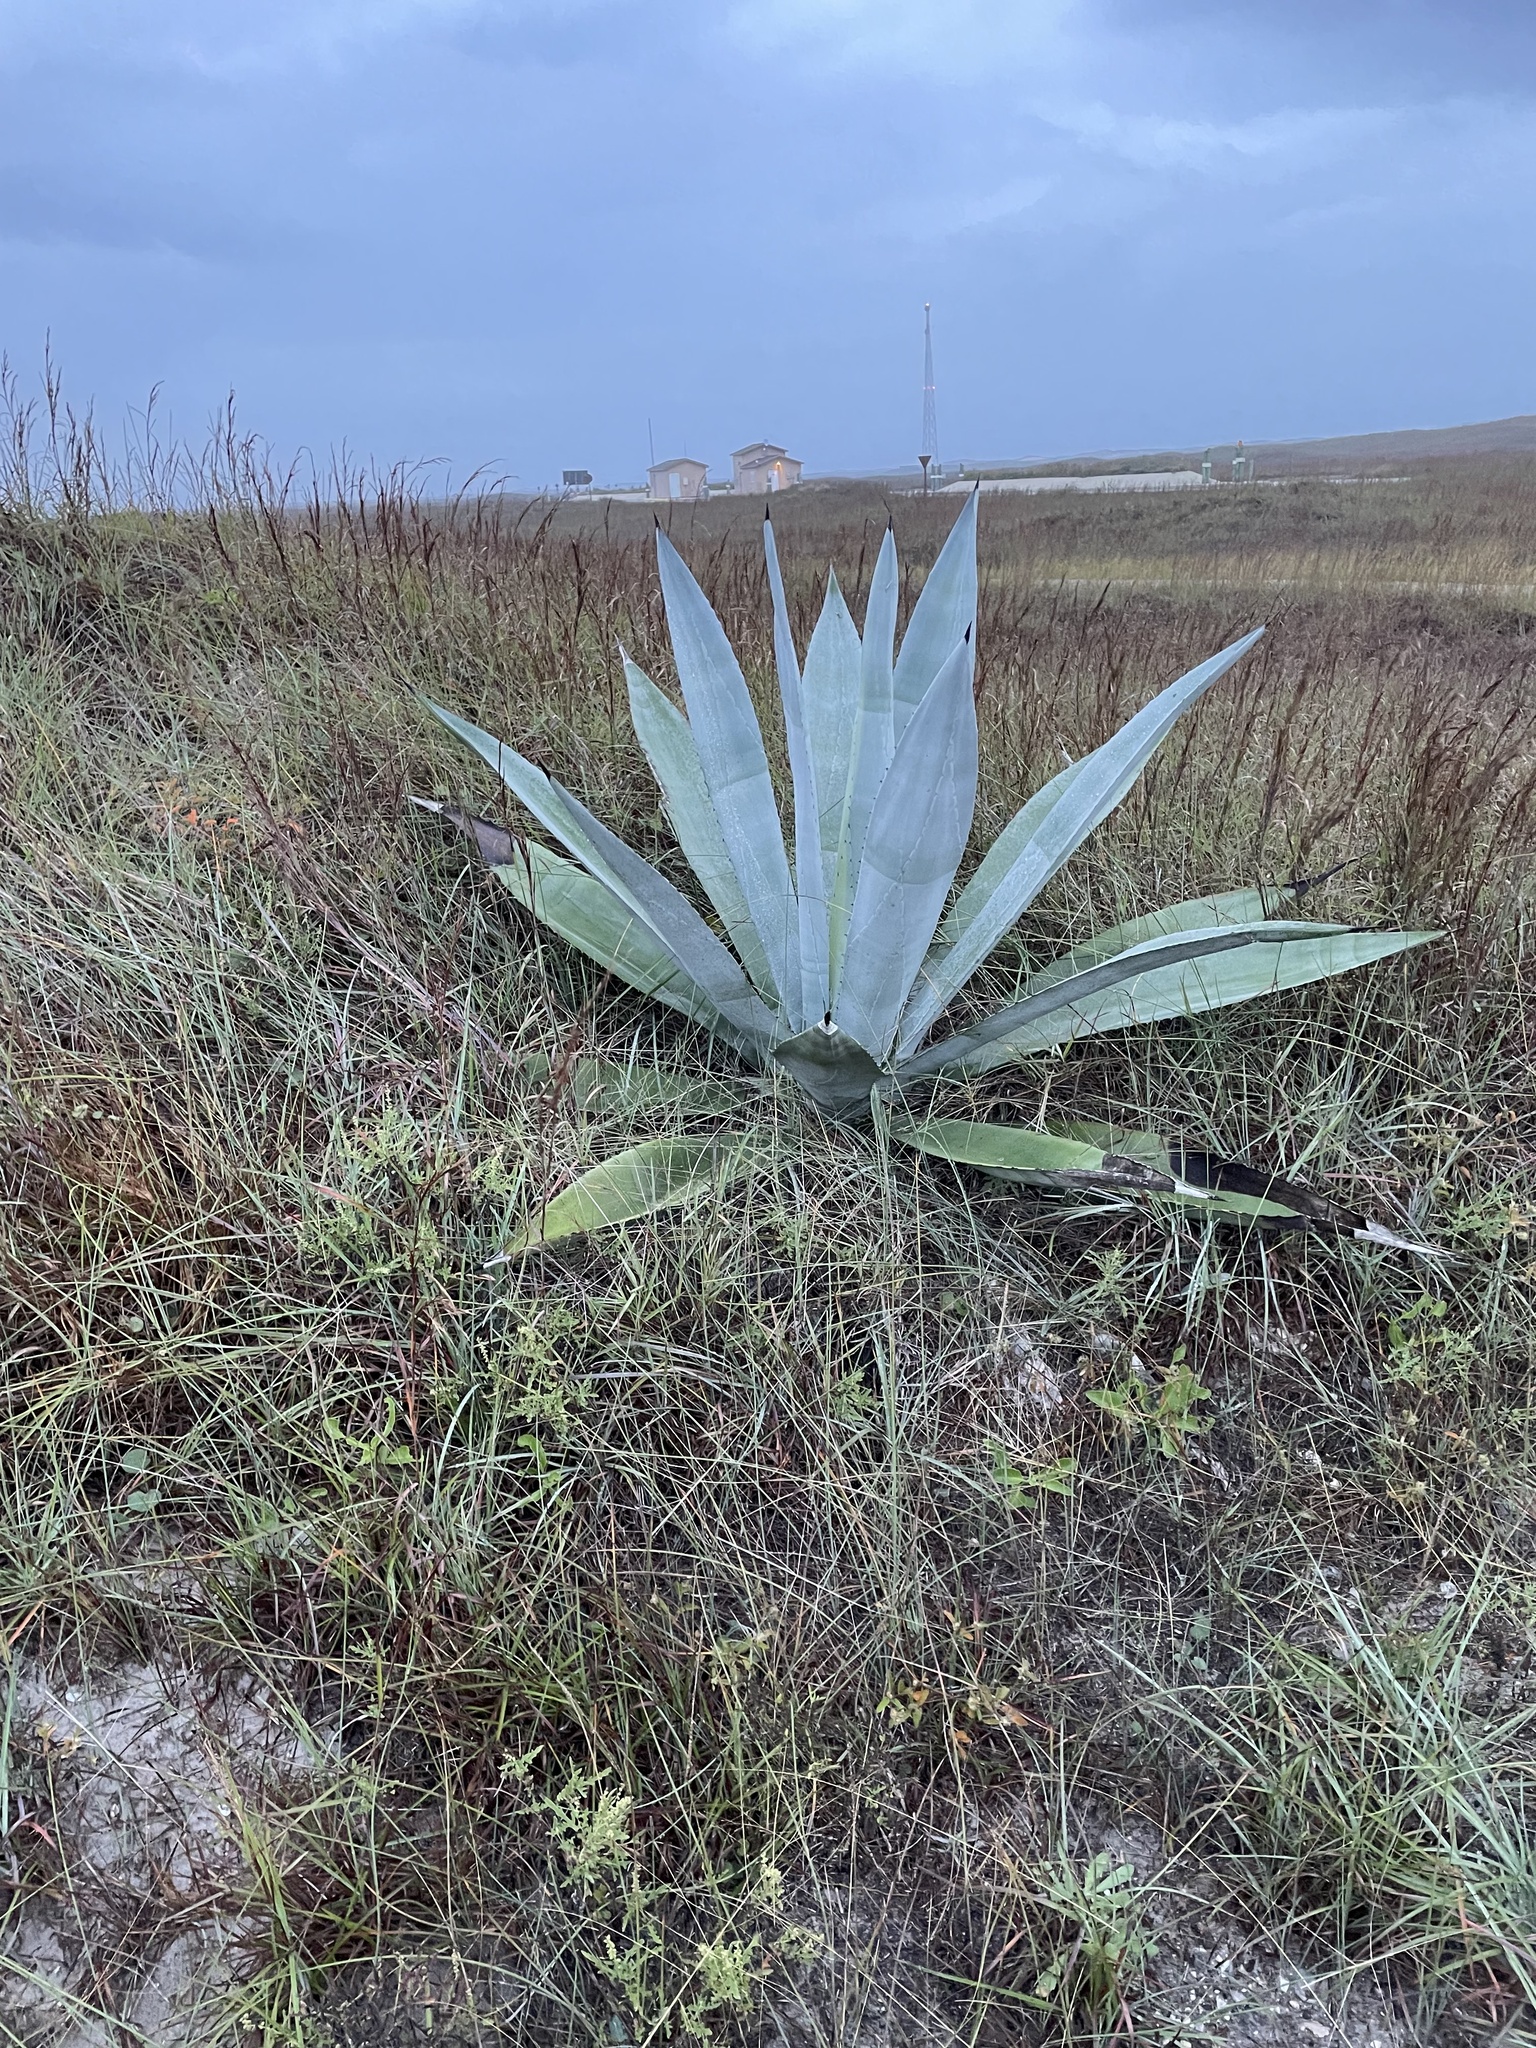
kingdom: Plantae
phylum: Tracheophyta
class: Liliopsida
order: Asparagales
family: Asparagaceae
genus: Agave
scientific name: Agave americana
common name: Centuryplant
